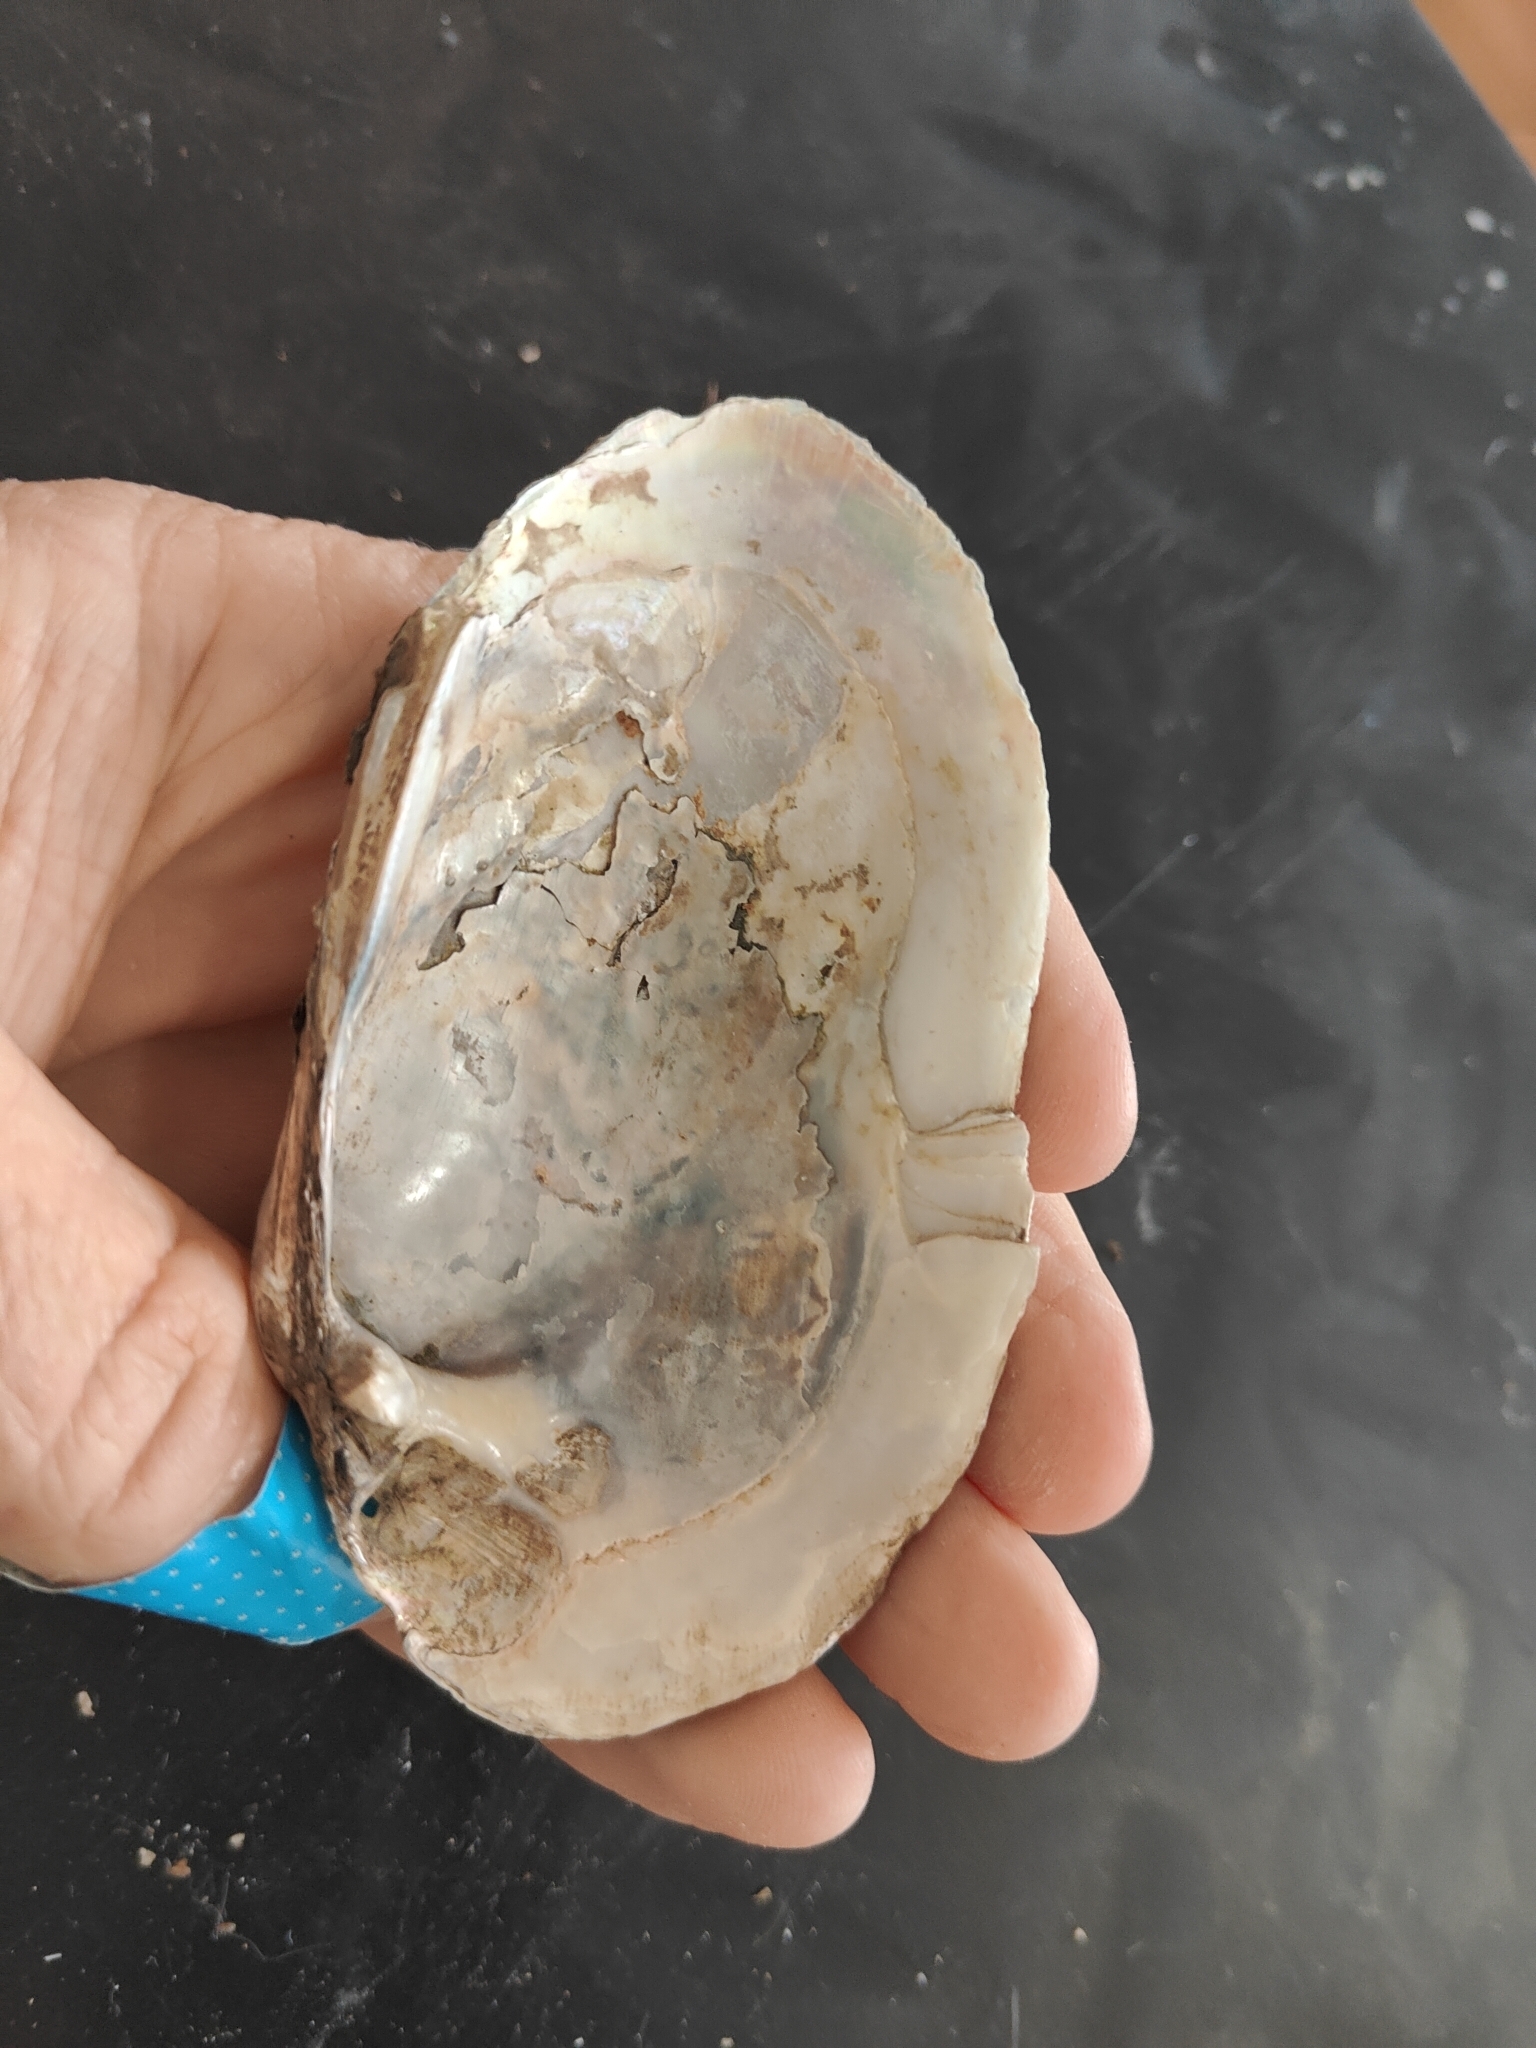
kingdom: Animalia
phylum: Mollusca
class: Bivalvia
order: Unionida
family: Unionidae
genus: Lampsilis
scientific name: Lampsilis siliquoidea
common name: Fatmucket
